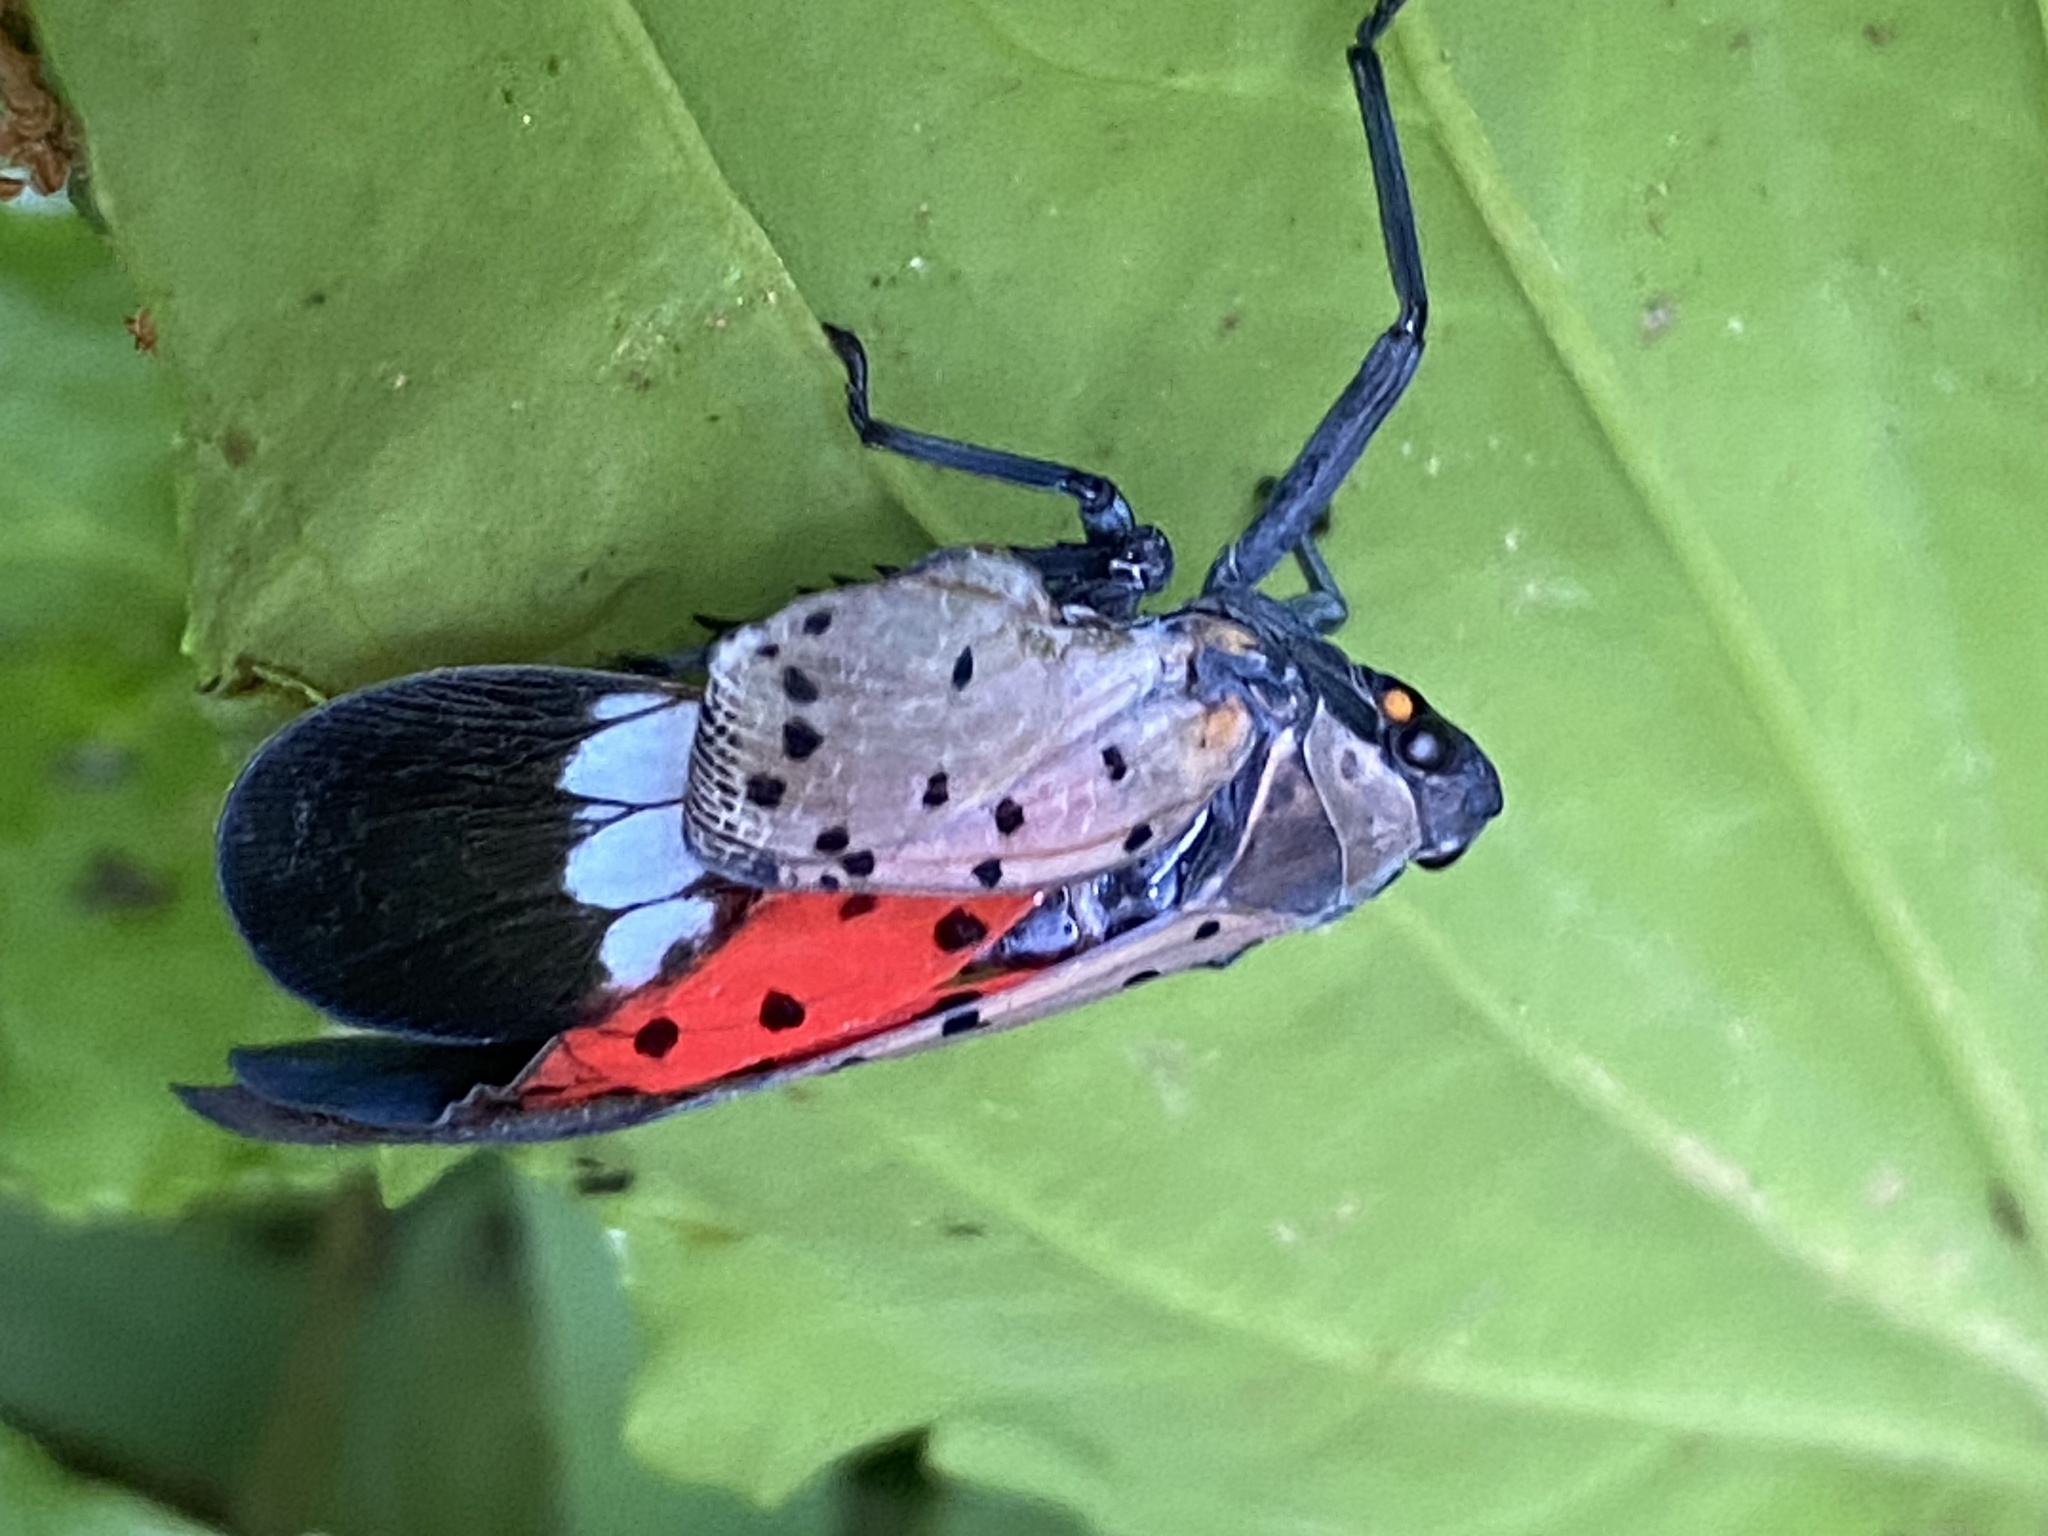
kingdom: Animalia
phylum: Arthropoda
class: Insecta
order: Hemiptera
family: Fulgoridae
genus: Lycorma
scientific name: Lycorma delicatula
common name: Spotted lanternfly
